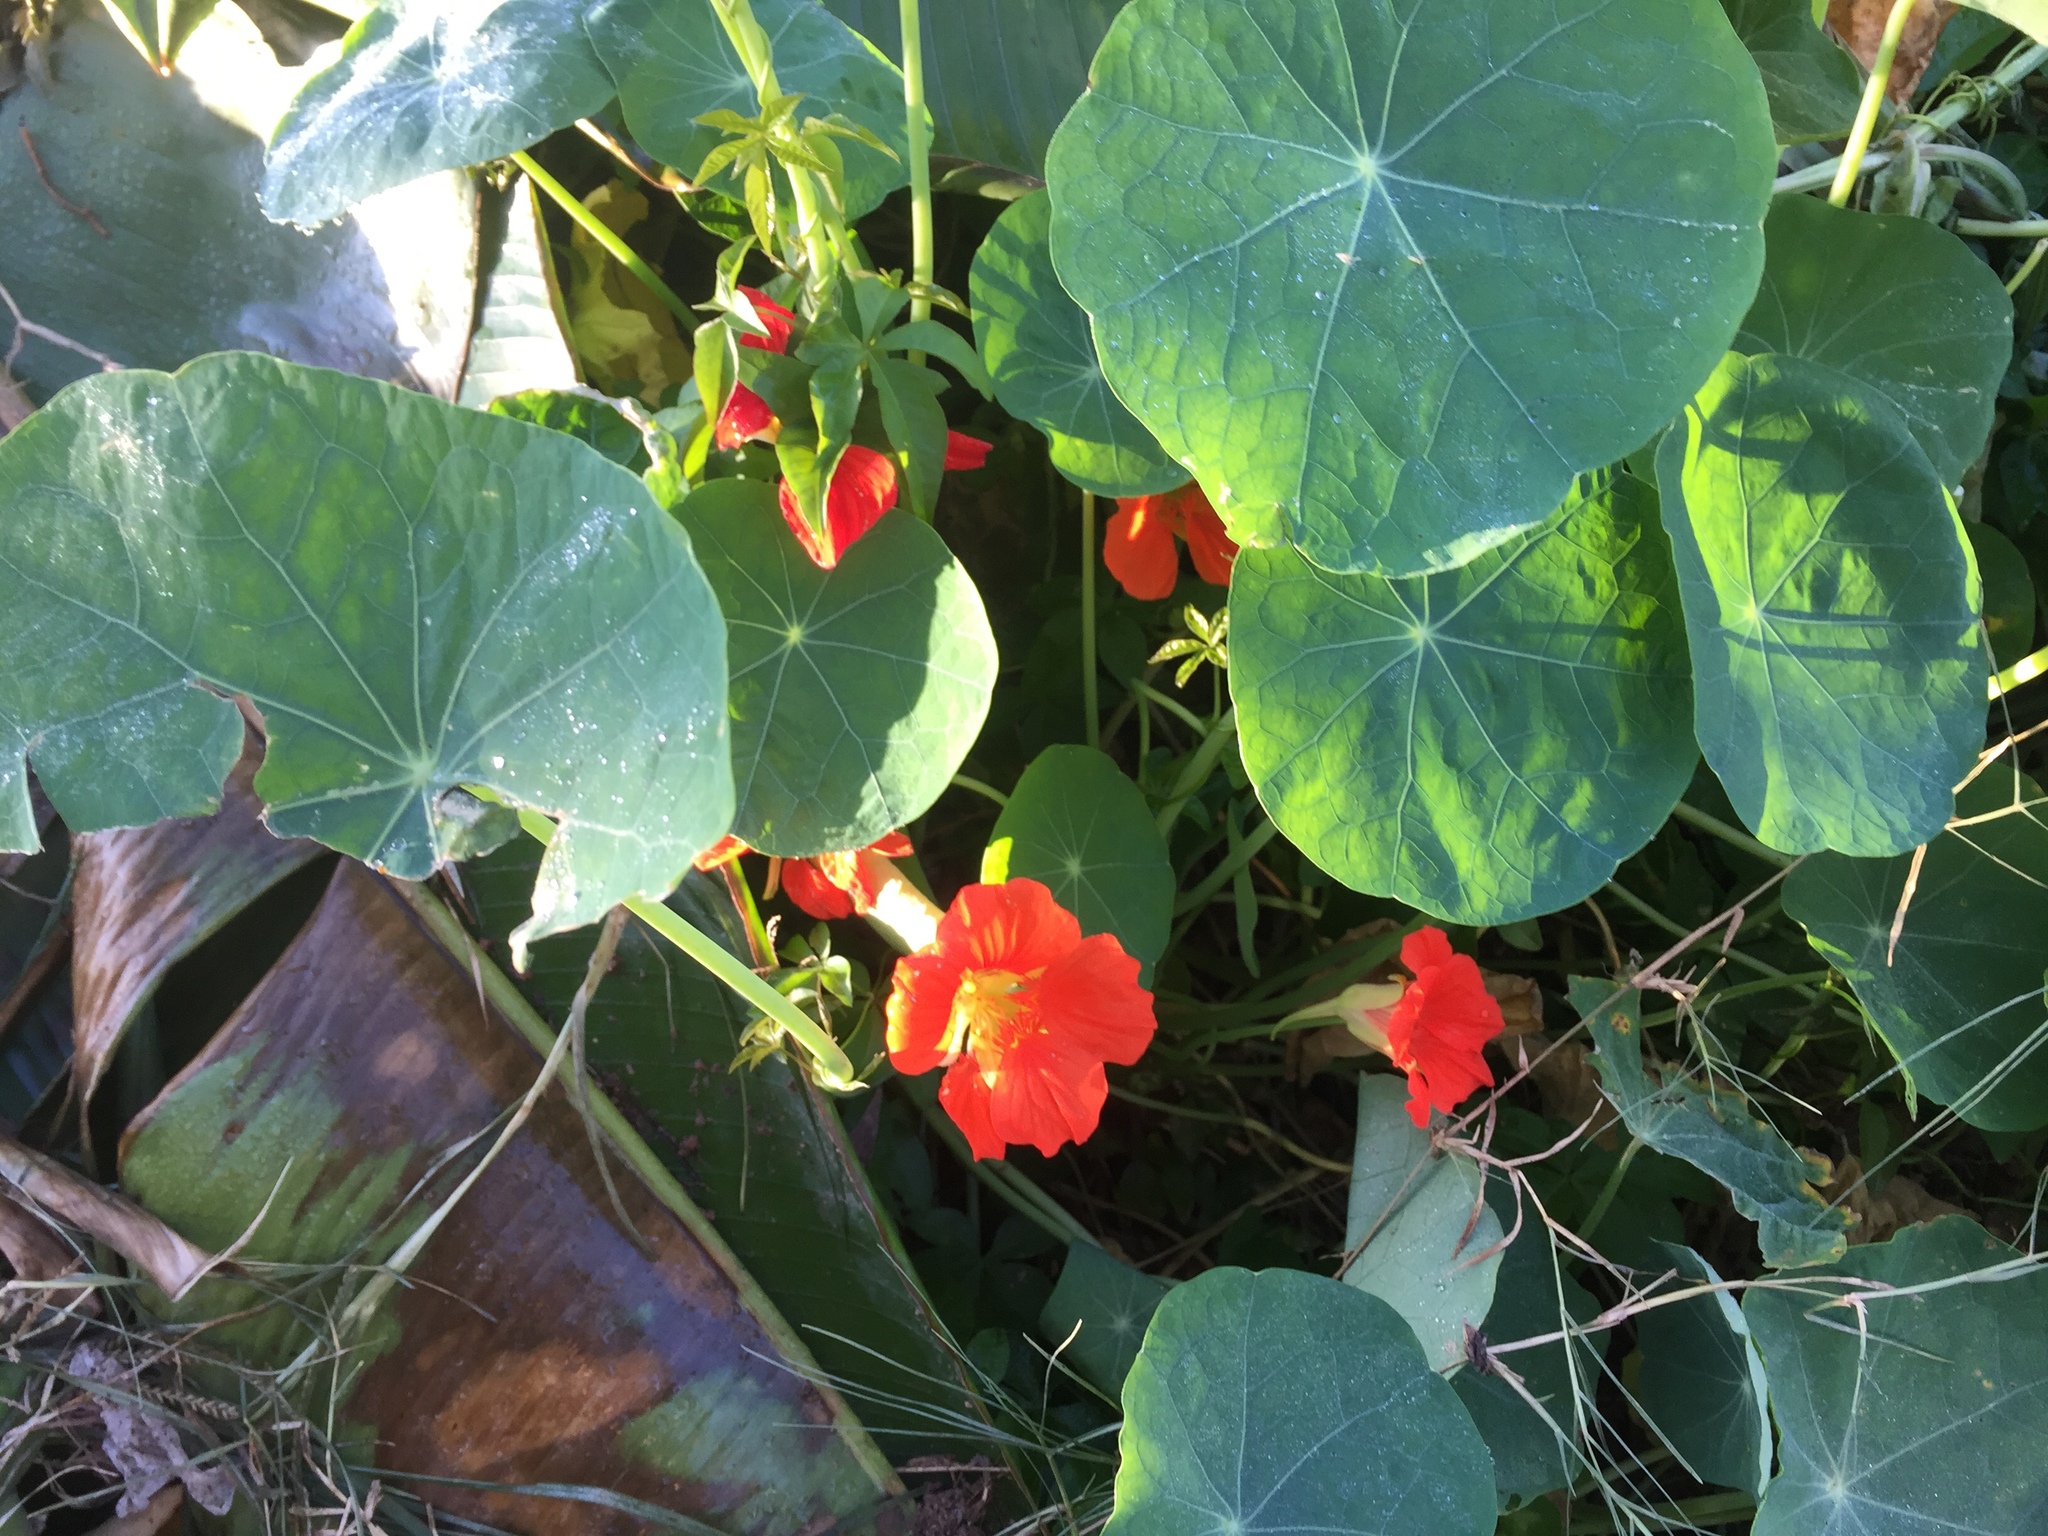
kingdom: Plantae
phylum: Tracheophyta
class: Magnoliopsida
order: Brassicales
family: Tropaeolaceae
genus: Tropaeolum
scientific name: Tropaeolum majus
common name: Nasturtium
